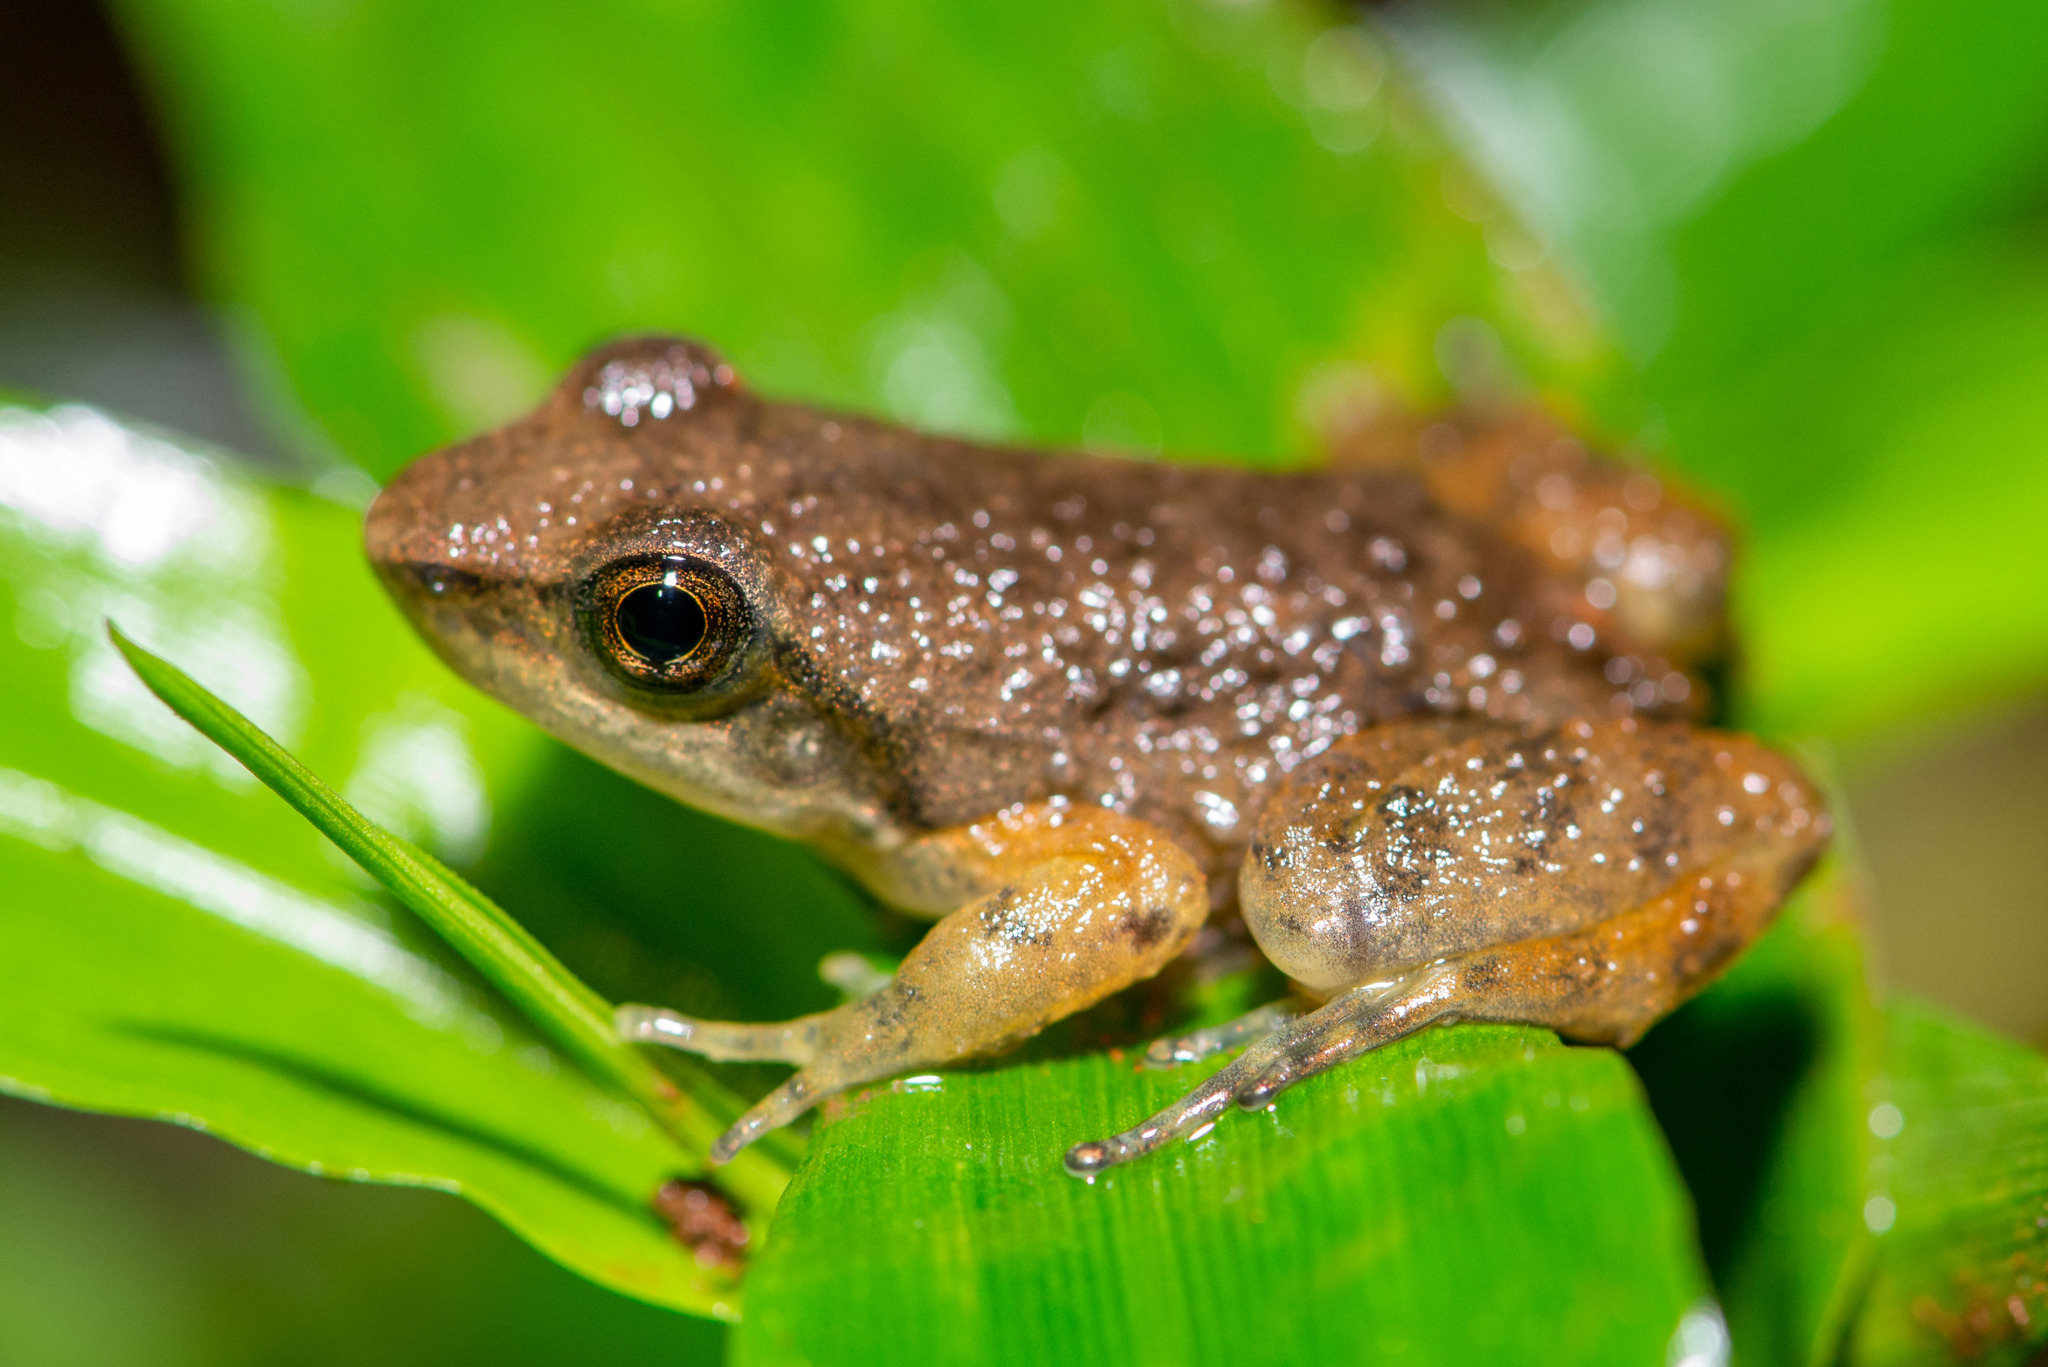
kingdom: Animalia
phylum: Chordata
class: Amphibia
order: Anura
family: Hylodidae
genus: Crossodactylus
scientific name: Crossodactylus schmidti
